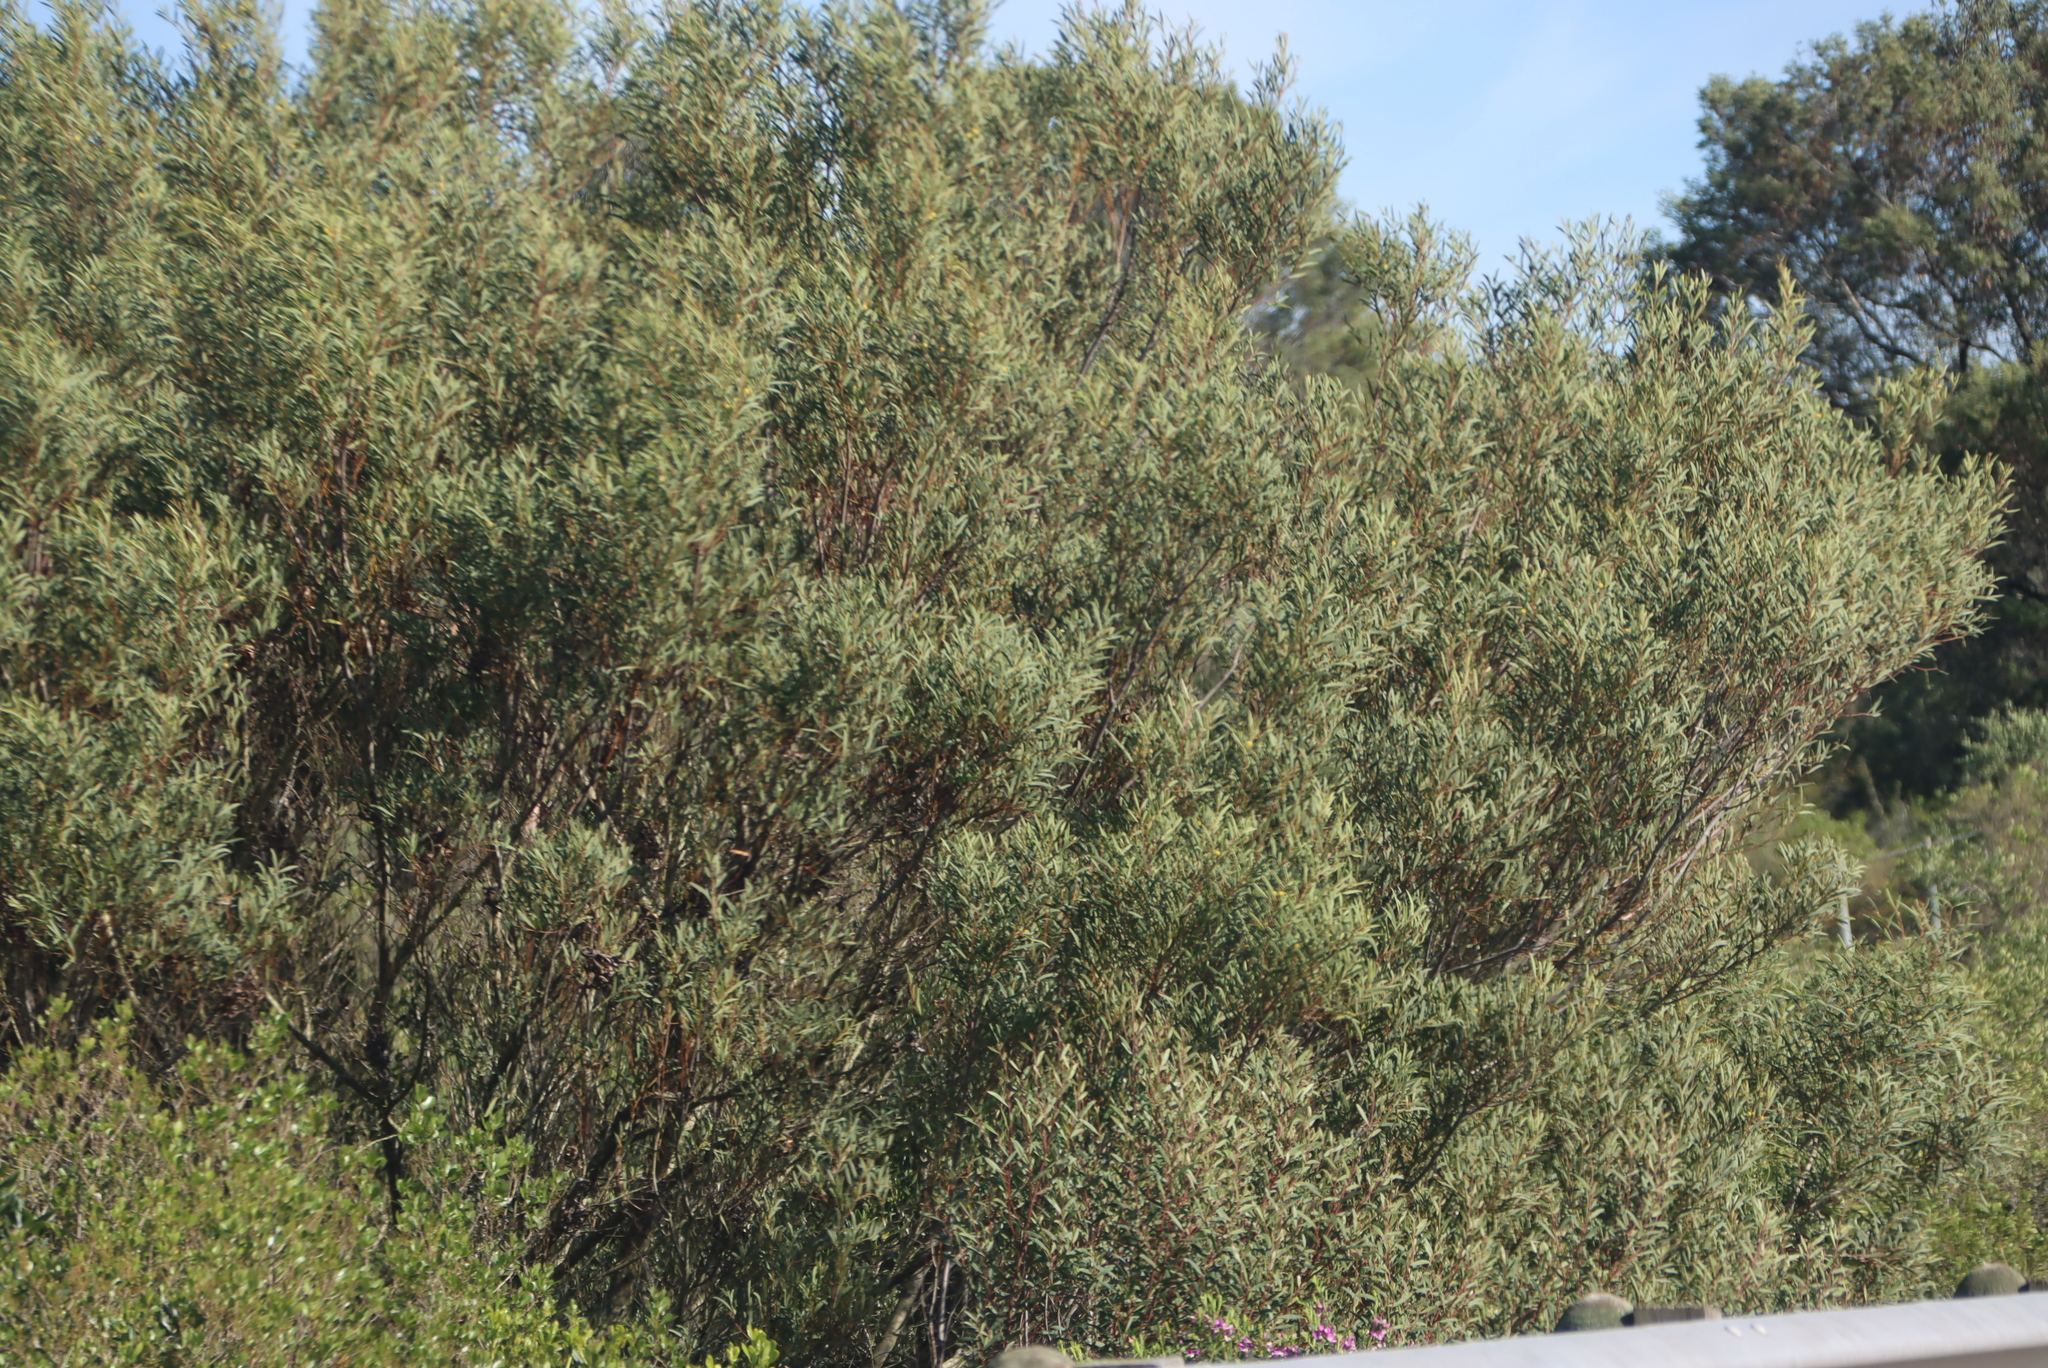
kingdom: Plantae
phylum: Tracheophyta
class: Magnoliopsida
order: Fabales
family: Fabaceae
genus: Acacia
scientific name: Acacia cyclops
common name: Coastal wattle
